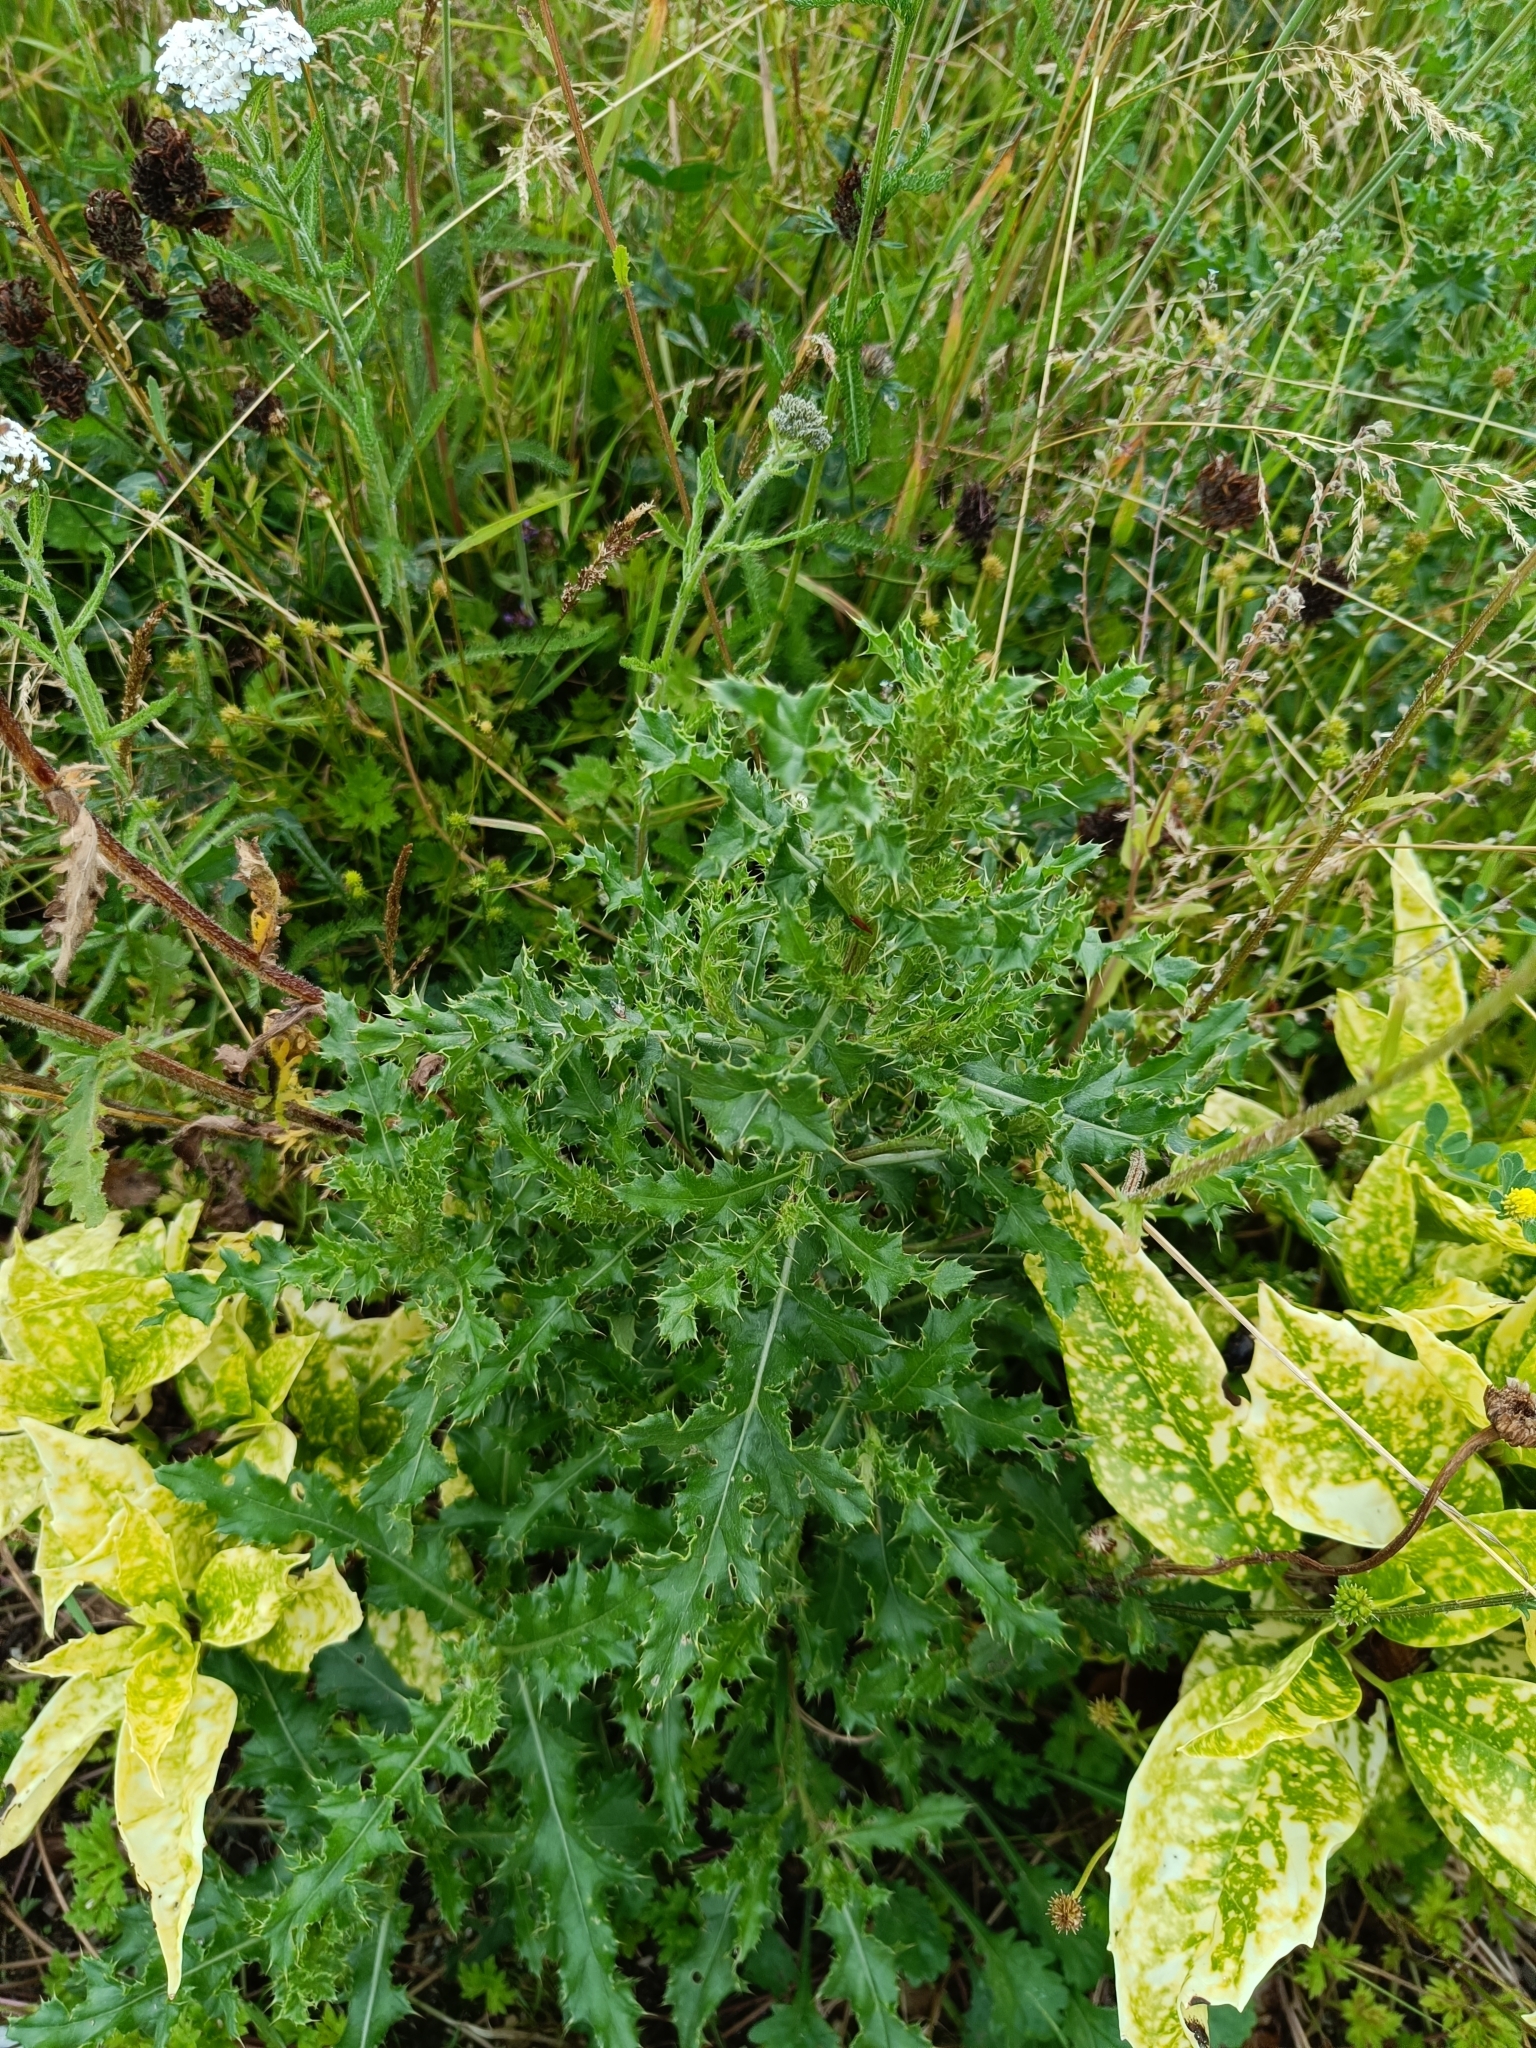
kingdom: Plantae
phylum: Tracheophyta
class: Magnoliopsida
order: Asterales
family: Asteraceae
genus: Cirsium
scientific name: Cirsium arvense
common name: Creeping thistle
